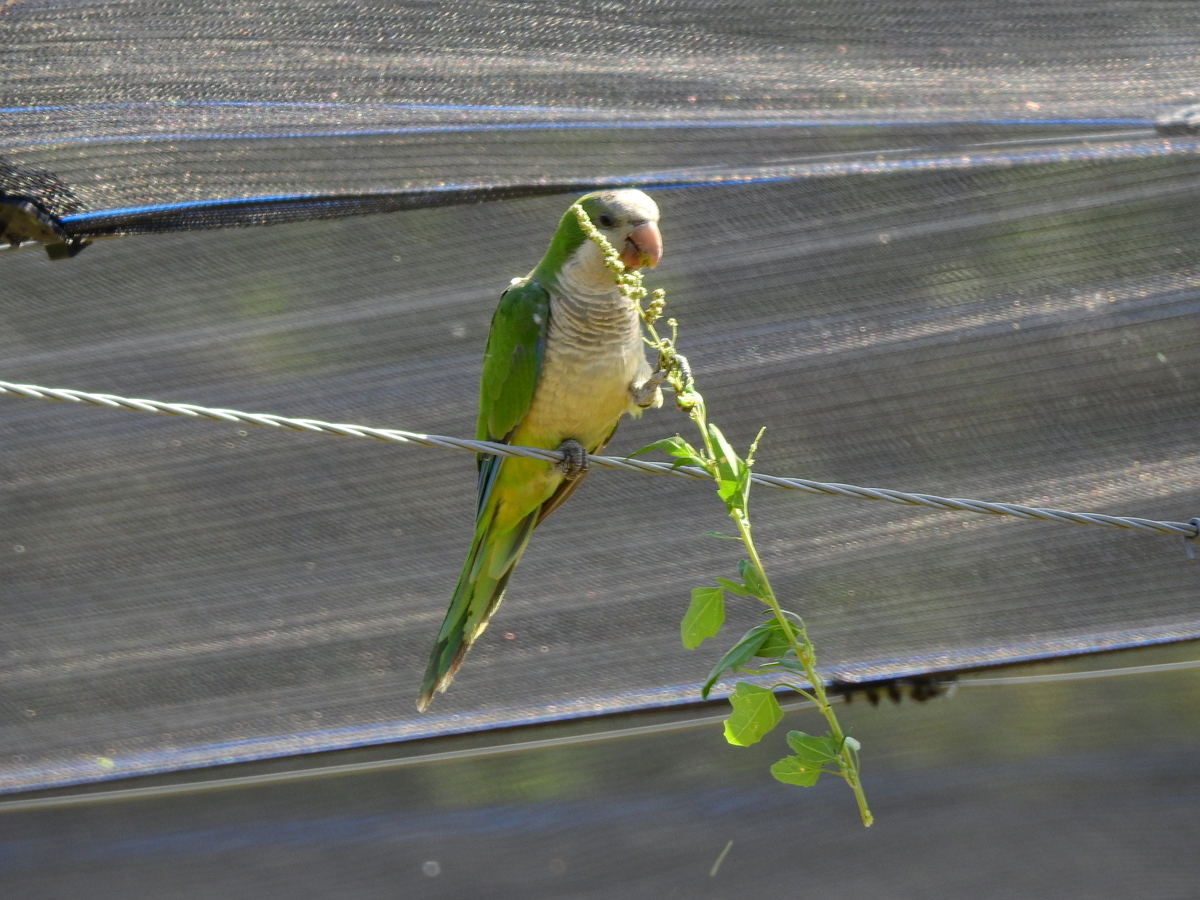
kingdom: Animalia
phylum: Chordata
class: Aves
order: Psittaciformes
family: Psittacidae
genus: Myiopsitta
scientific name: Myiopsitta monachus
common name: Monk parakeet
